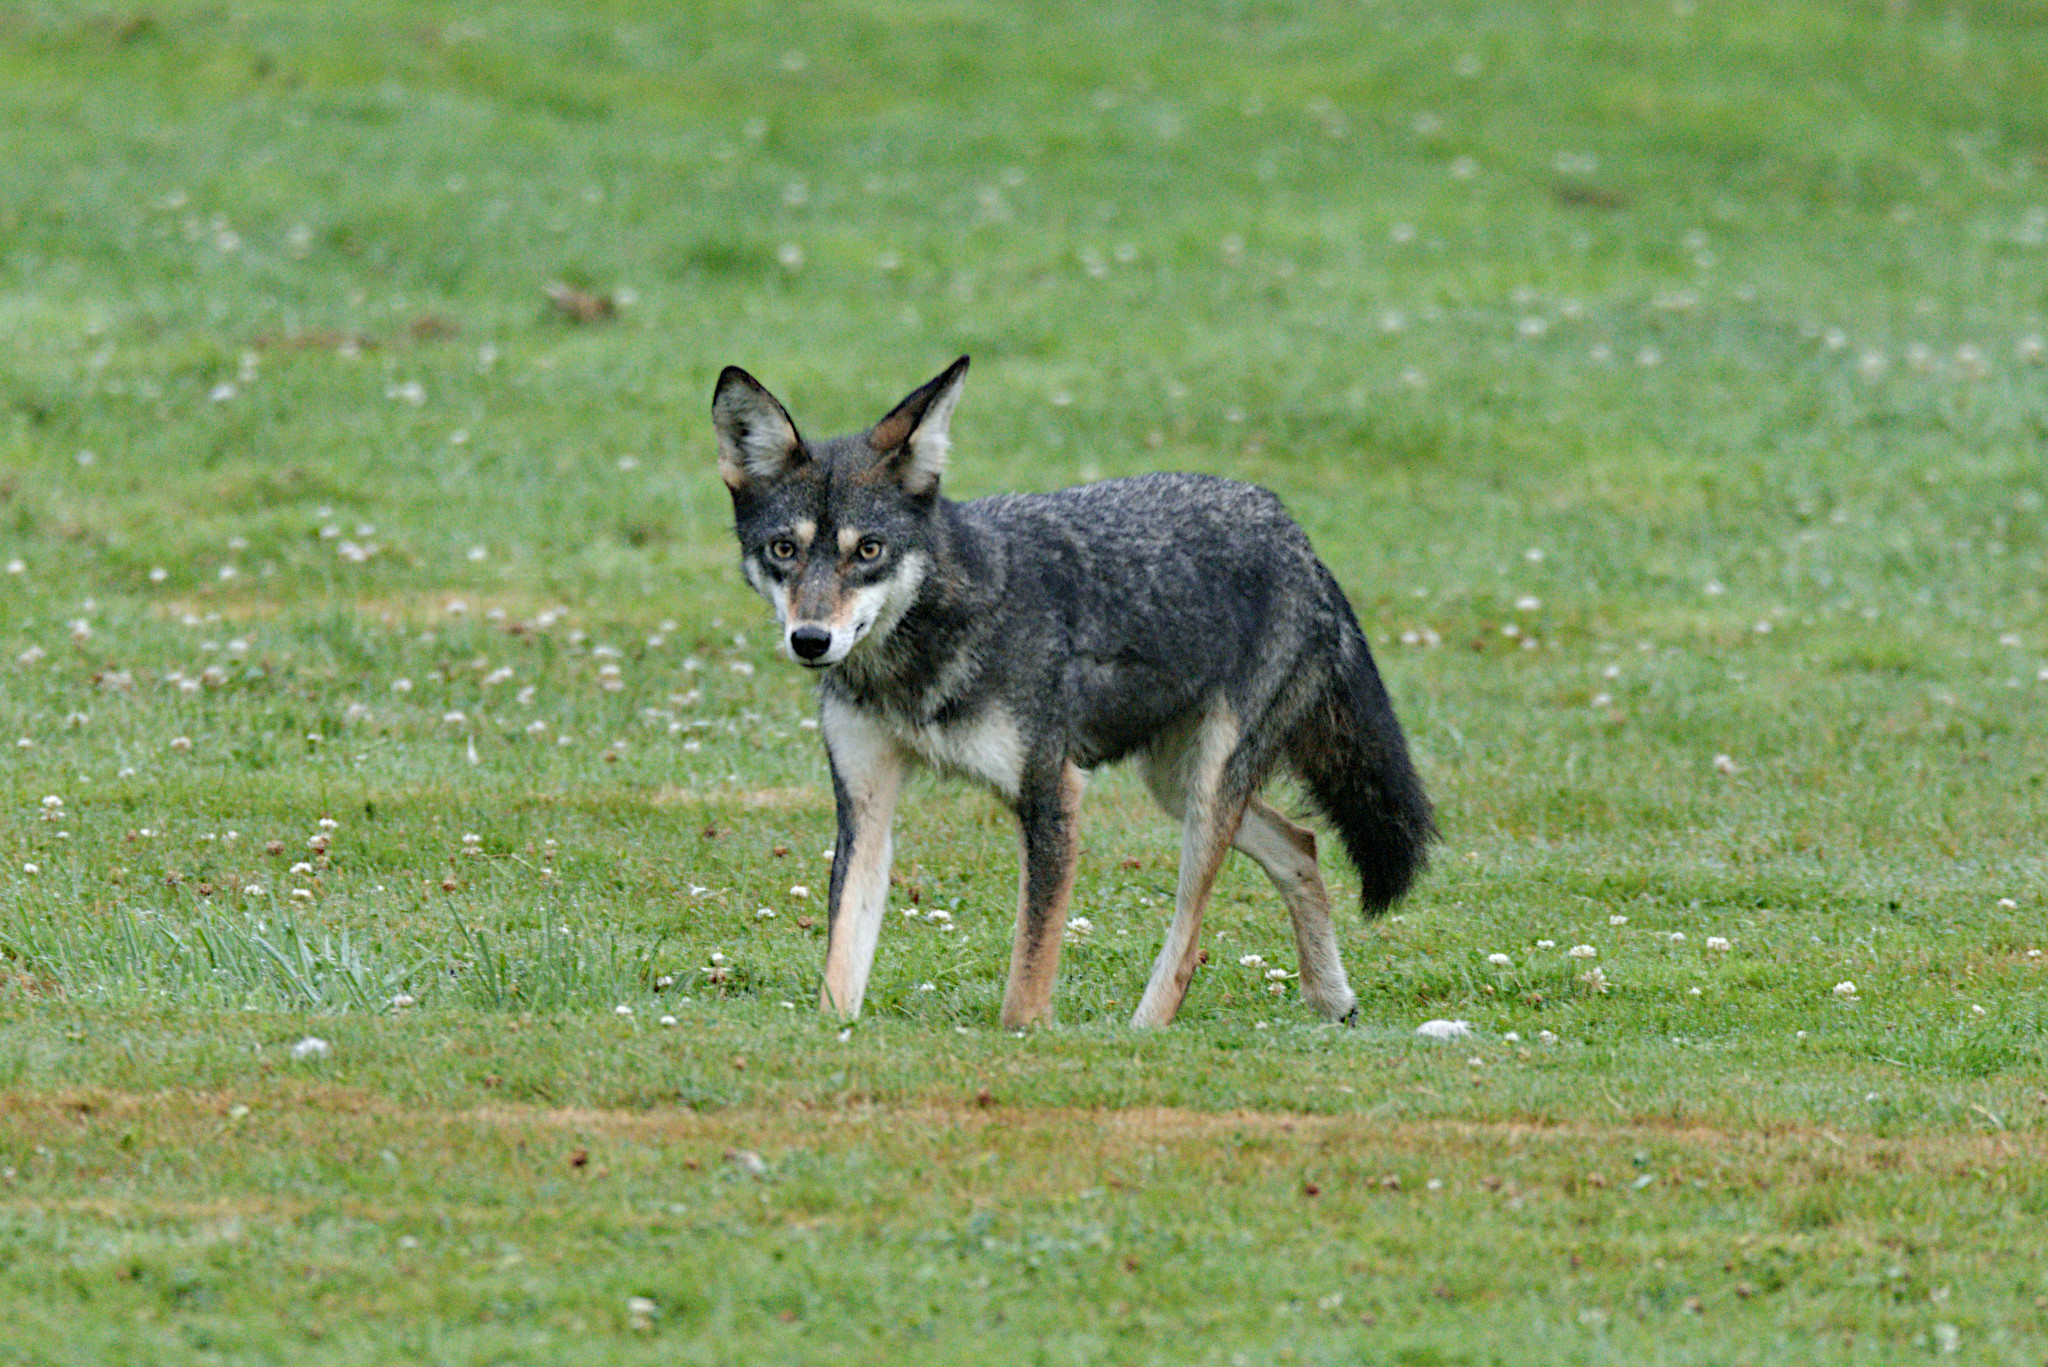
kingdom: Animalia
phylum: Chordata
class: Mammalia
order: Carnivora
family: Canidae
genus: Canis
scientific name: Canis latrans
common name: Coyote
